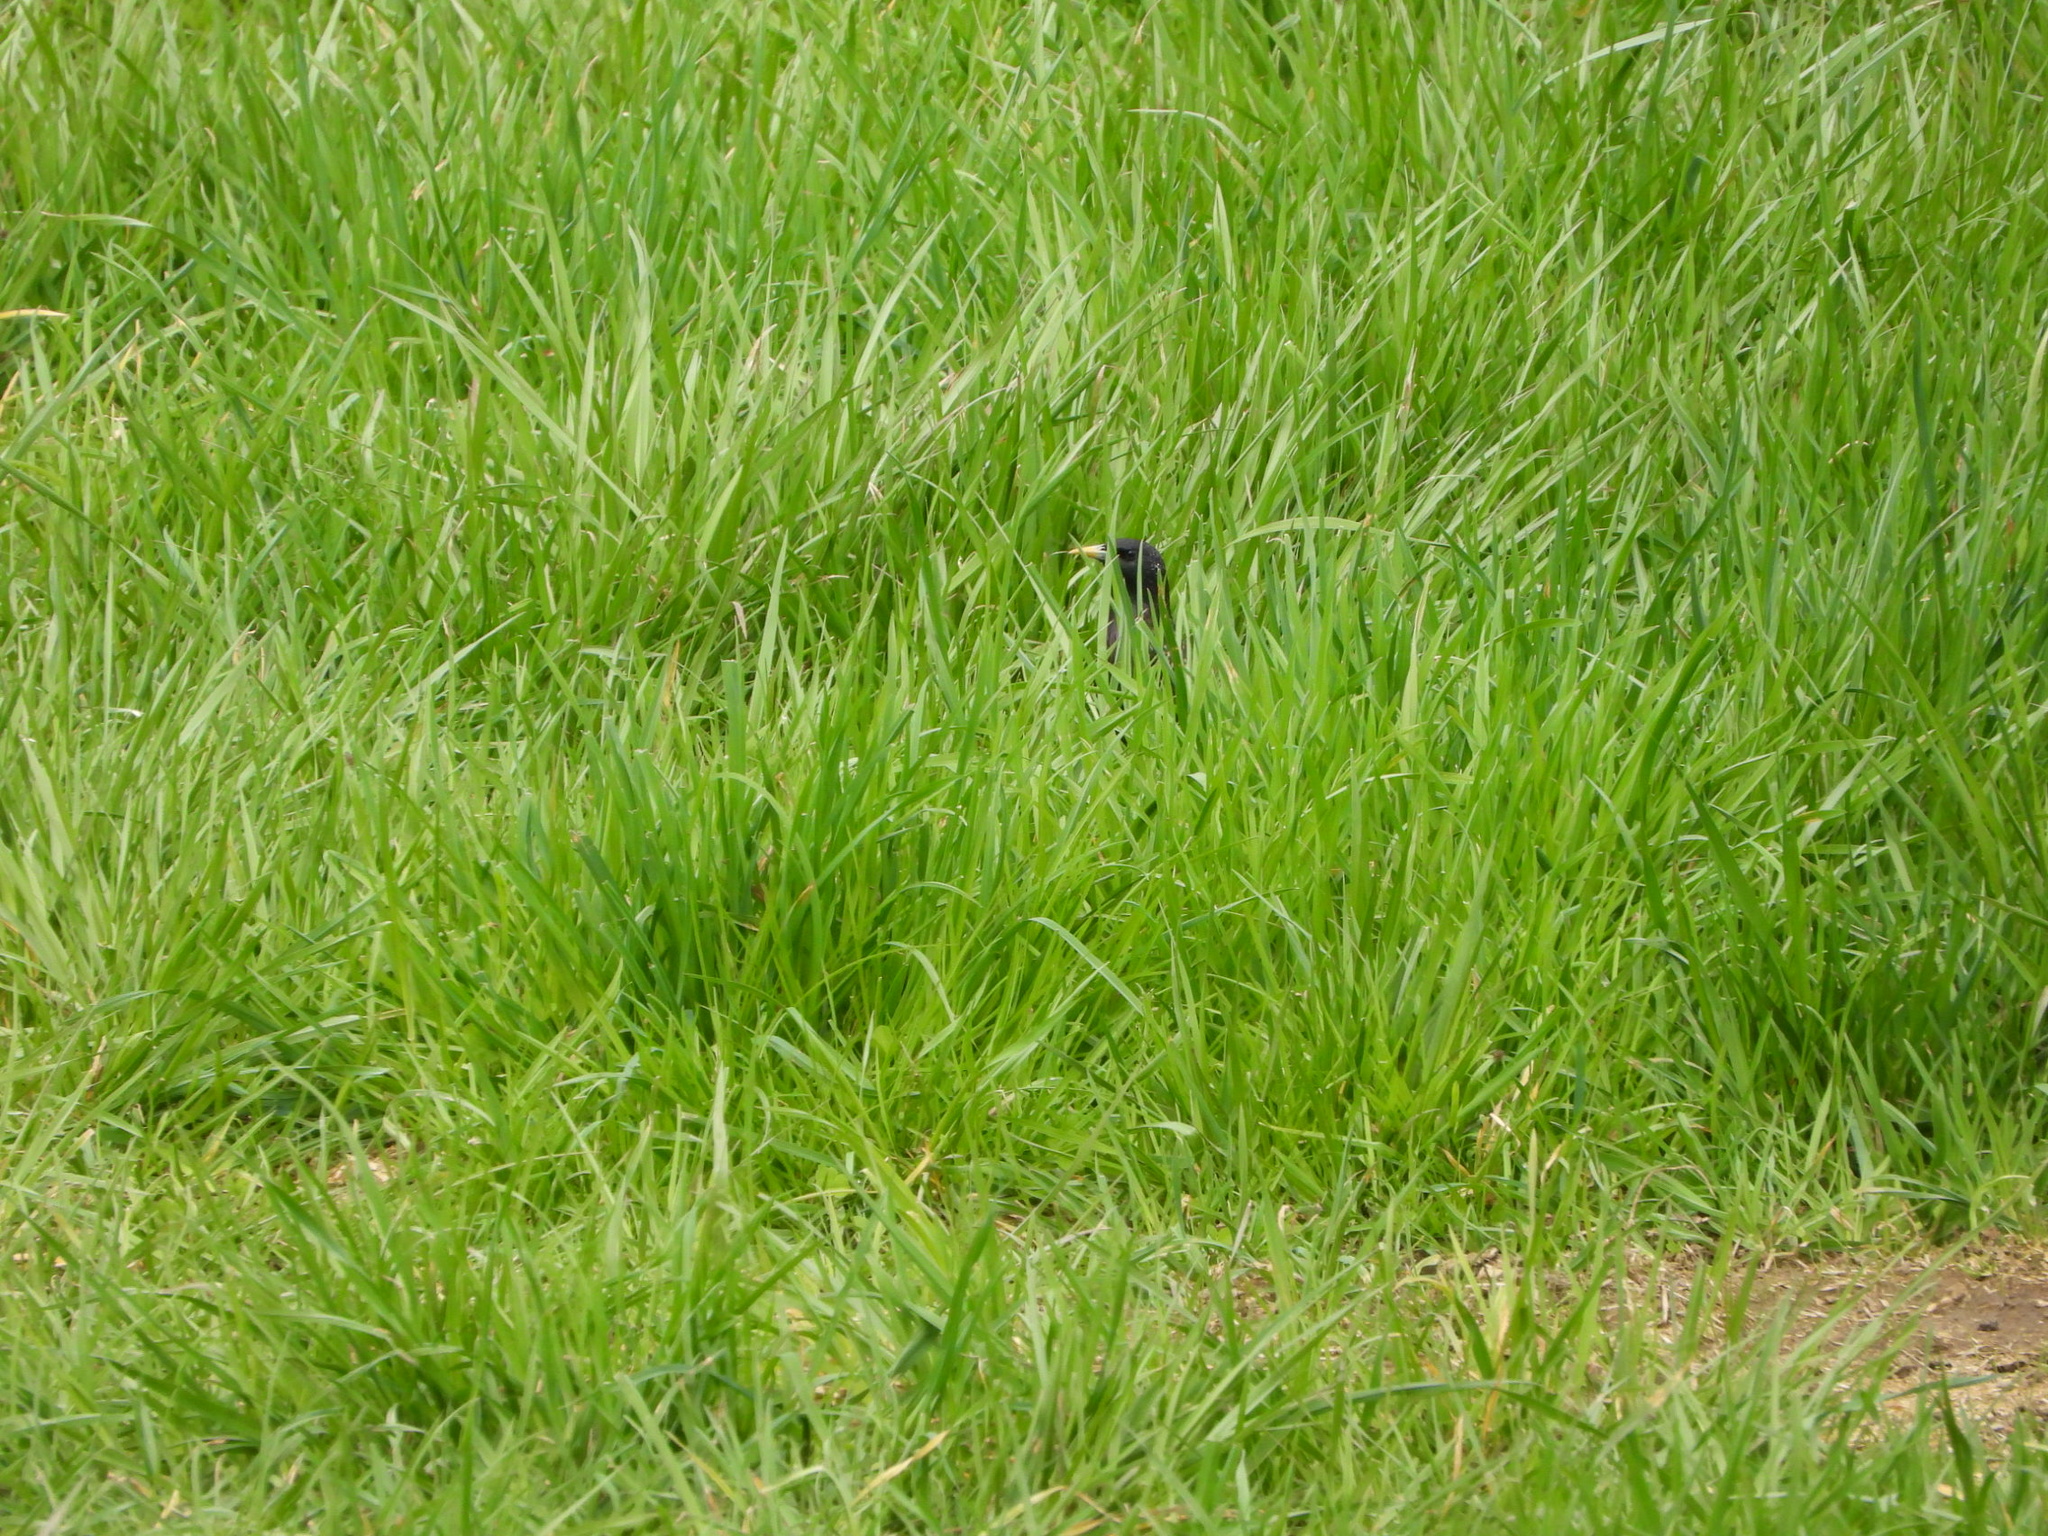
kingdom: Animalia
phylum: Chordata
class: Aves
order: Passeriformes
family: Sturnidae
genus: Sturnus
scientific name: Sturnus vulgaris
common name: Common starling
